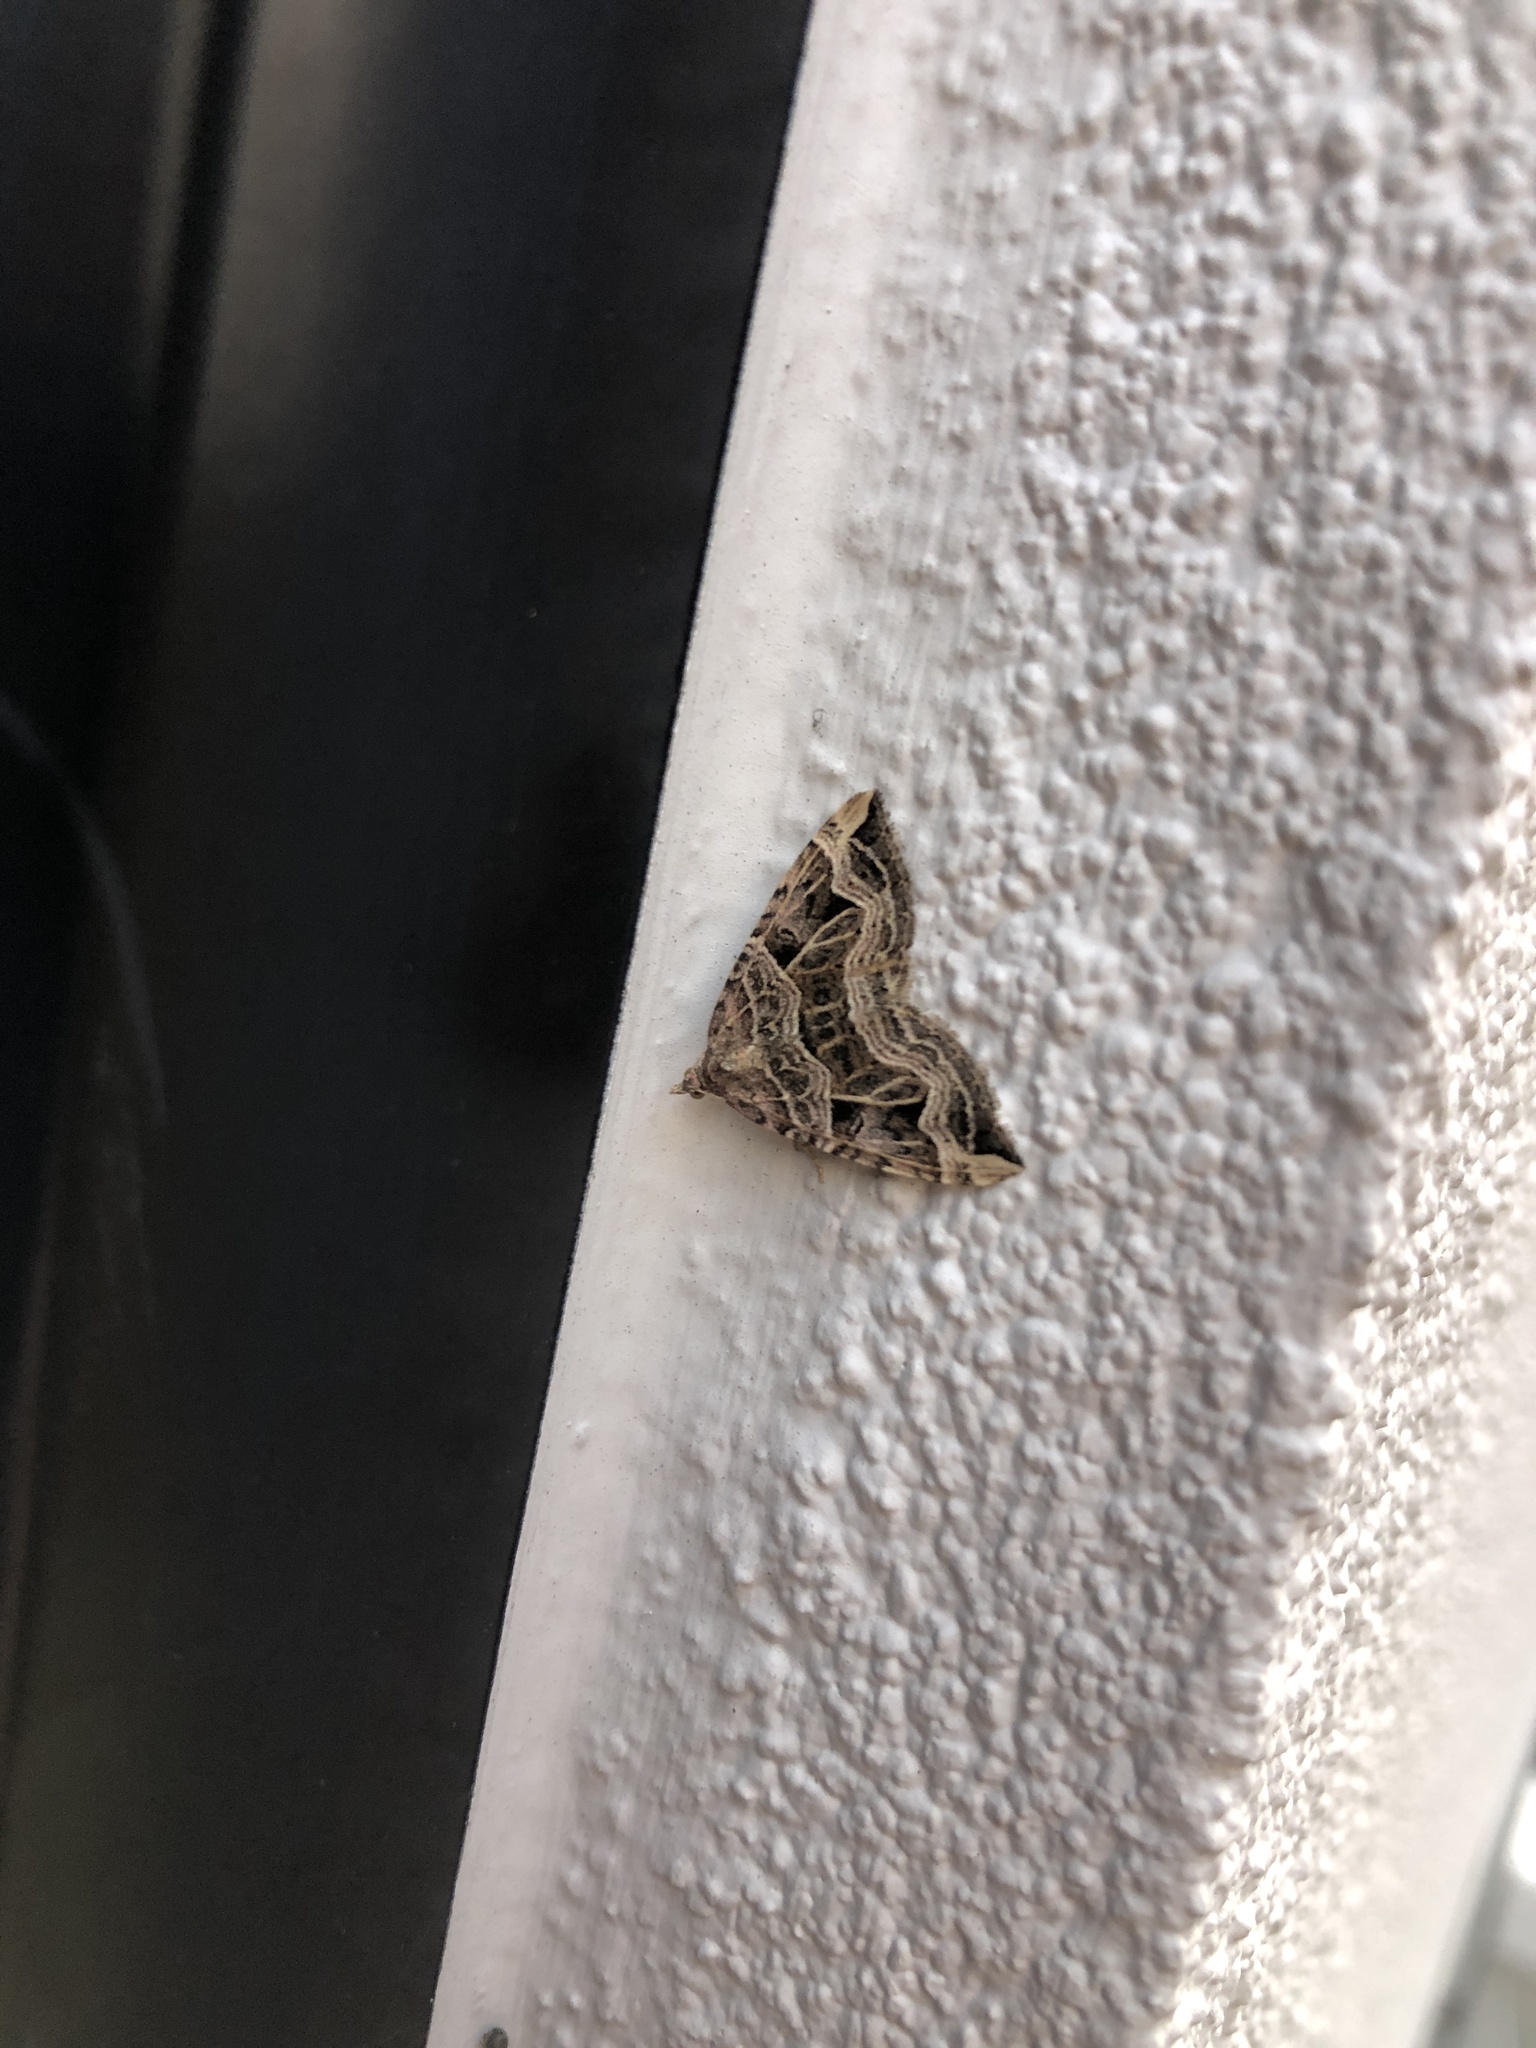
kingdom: Animalia
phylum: Arthropoda
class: Insecta
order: Lepidoptera
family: Geometridae
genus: Xanthorhoe
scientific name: Xanthorhoe semifissata
